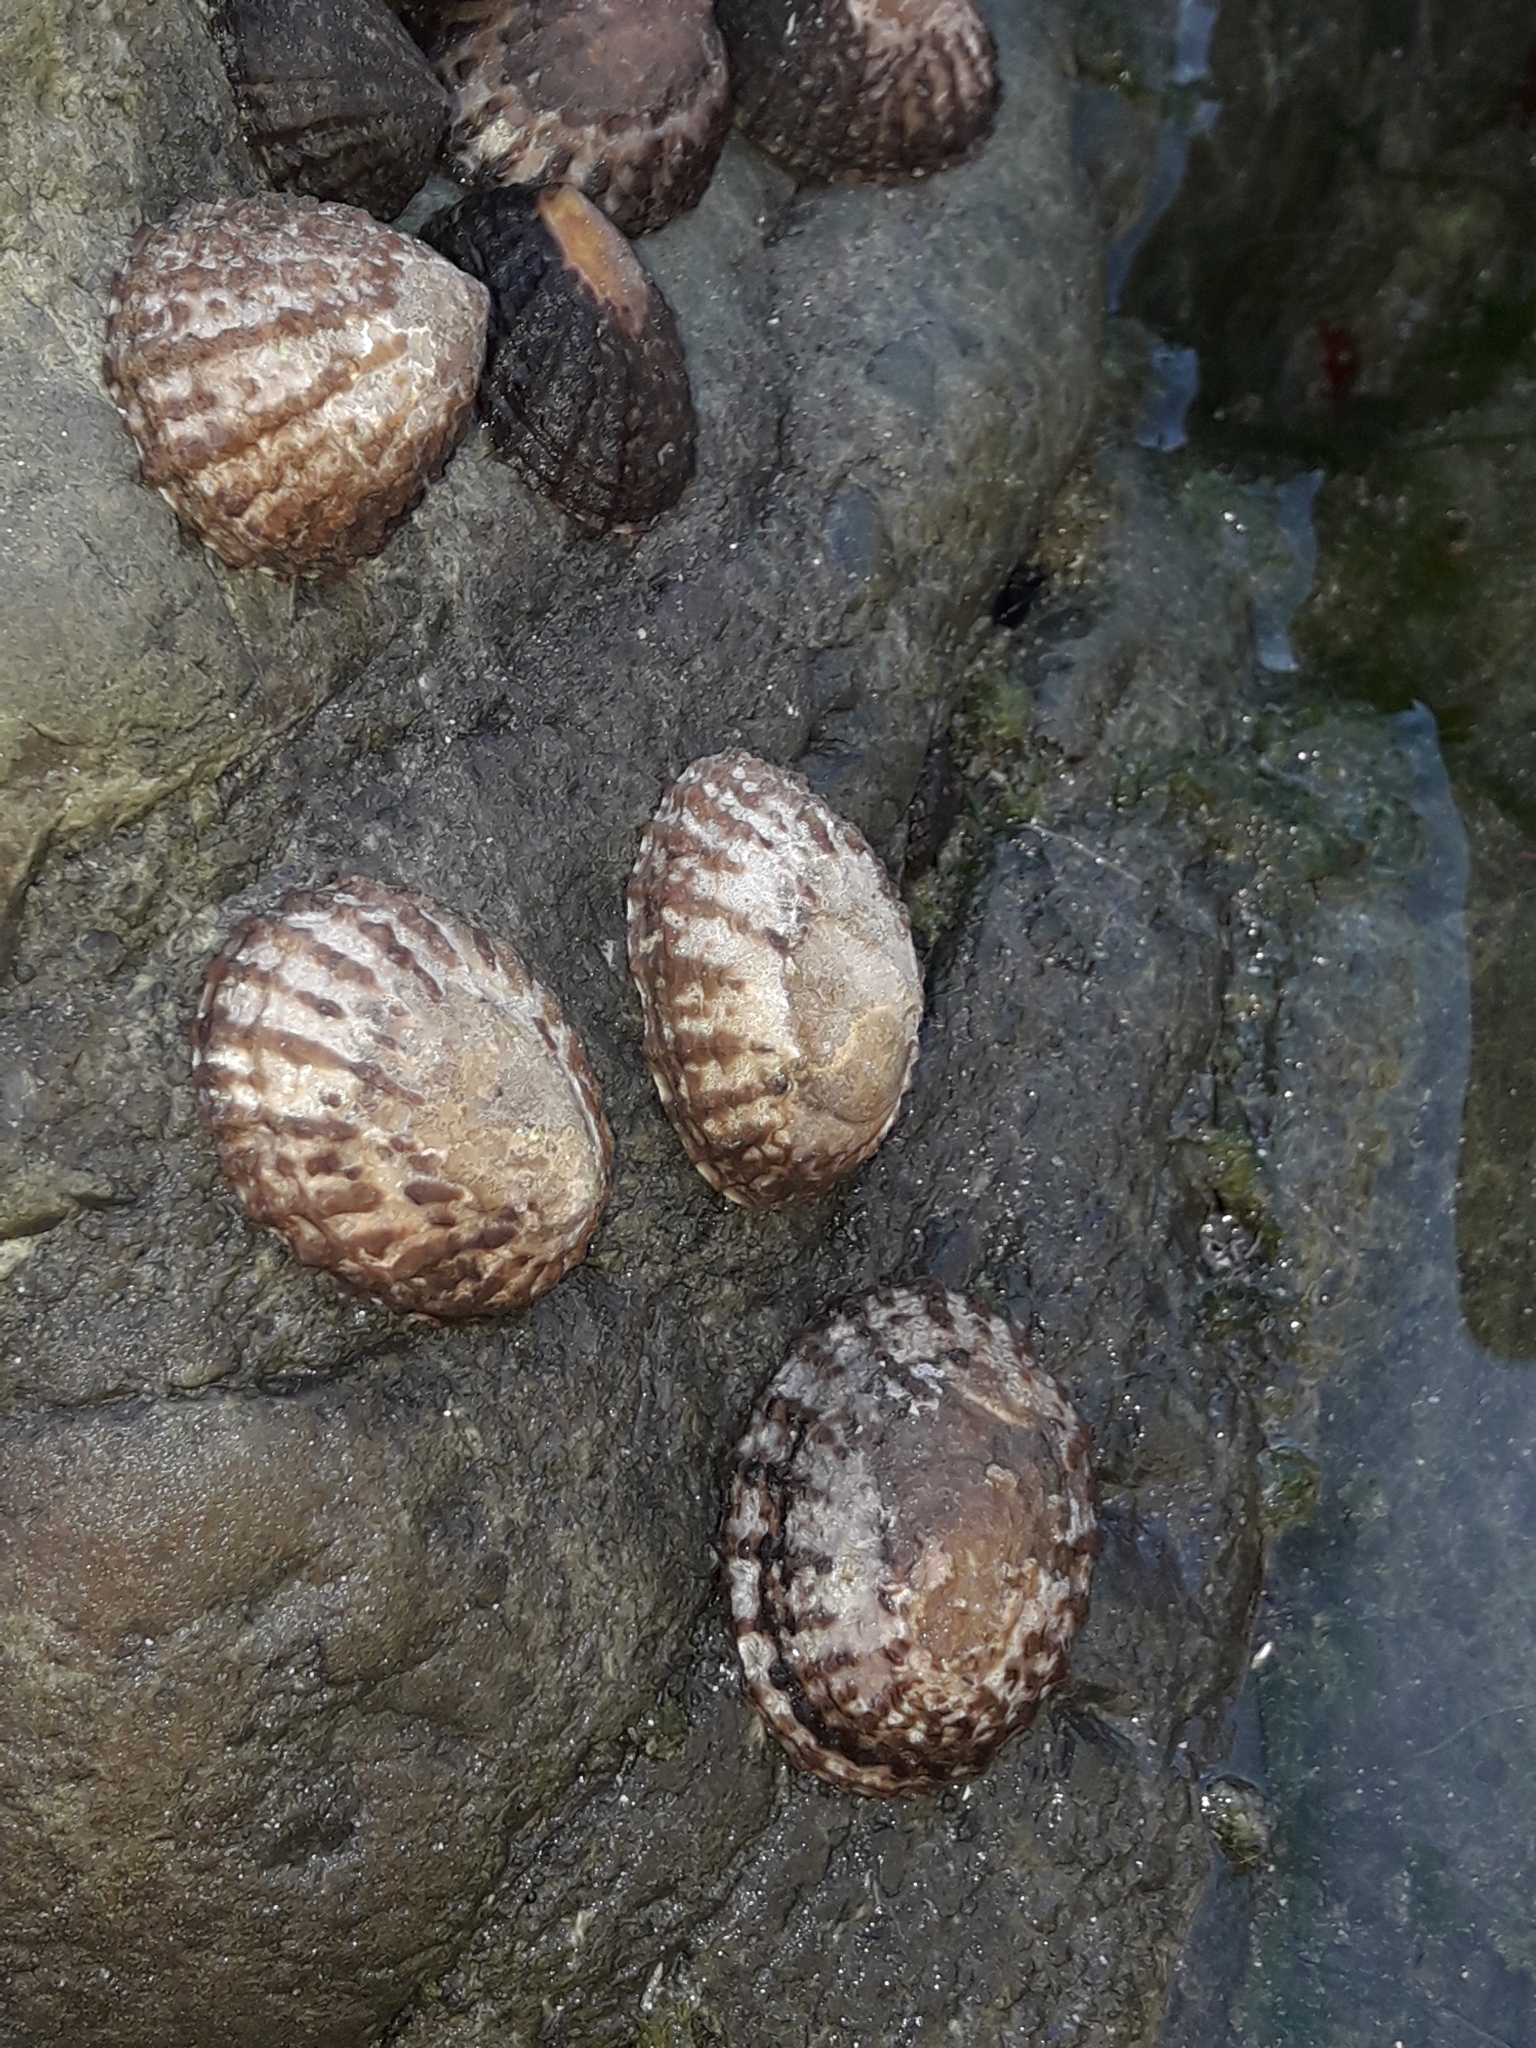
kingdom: Animalia
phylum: Mollusca
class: Gastropoda
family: Nacellidae
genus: Cellana
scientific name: Cellana denticulata
